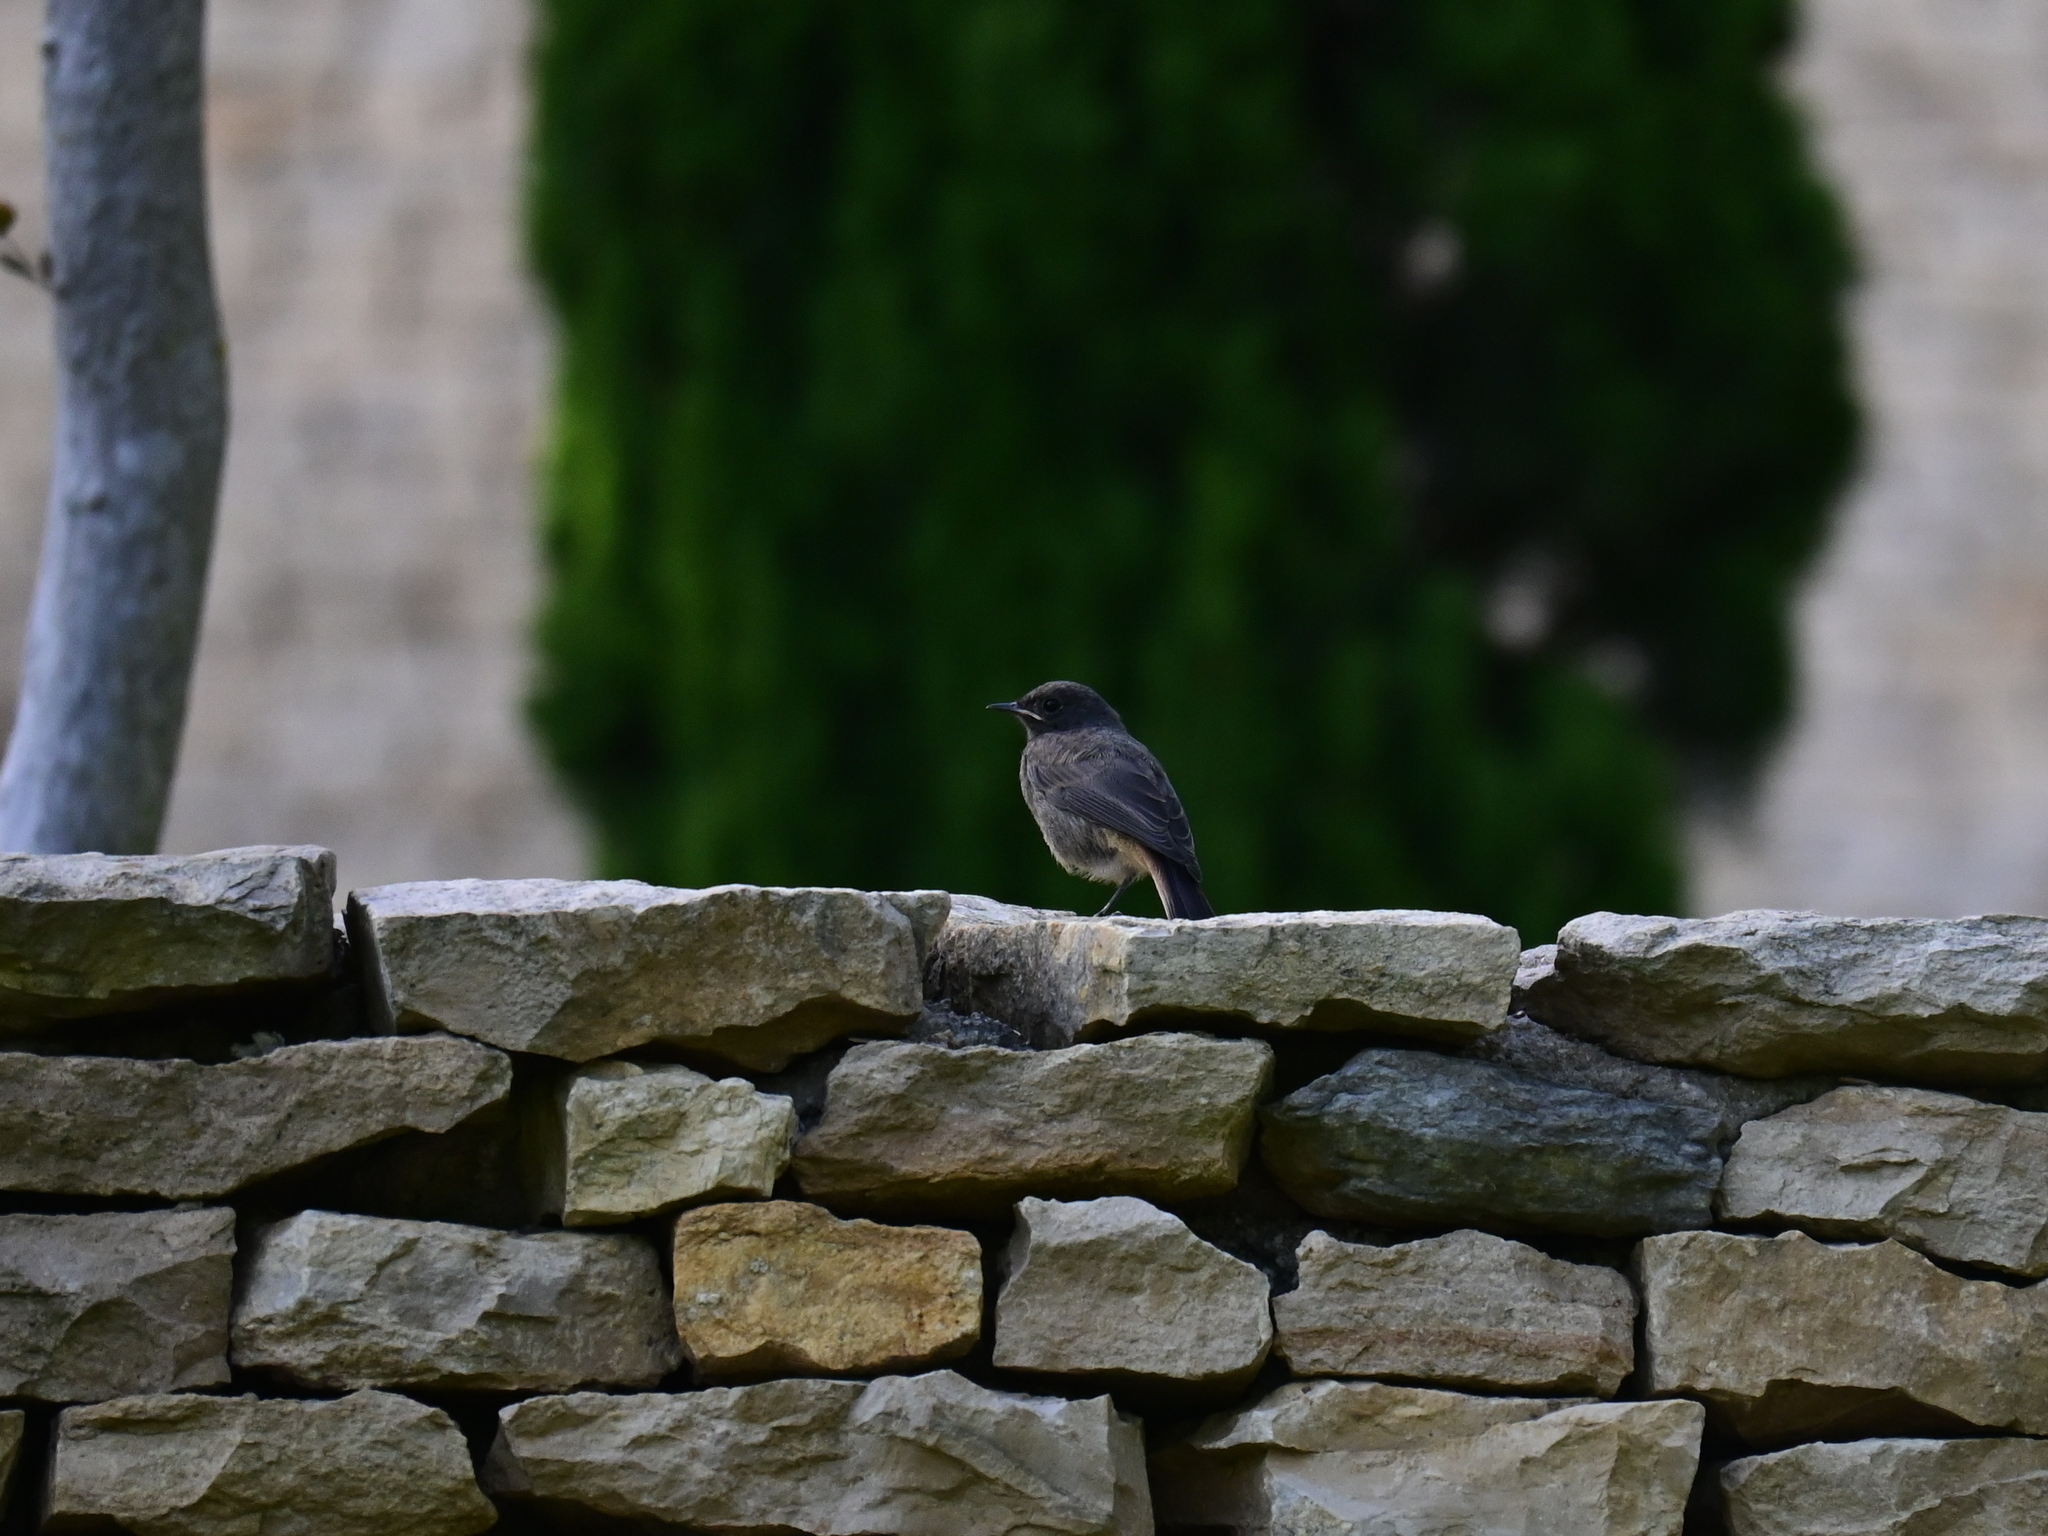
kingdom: Animalia
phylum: Chordata
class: Aves
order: Passeriformes
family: Muscicapidae
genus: Phoenicurus
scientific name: Phoenicurus ochruros
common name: Black redstart
